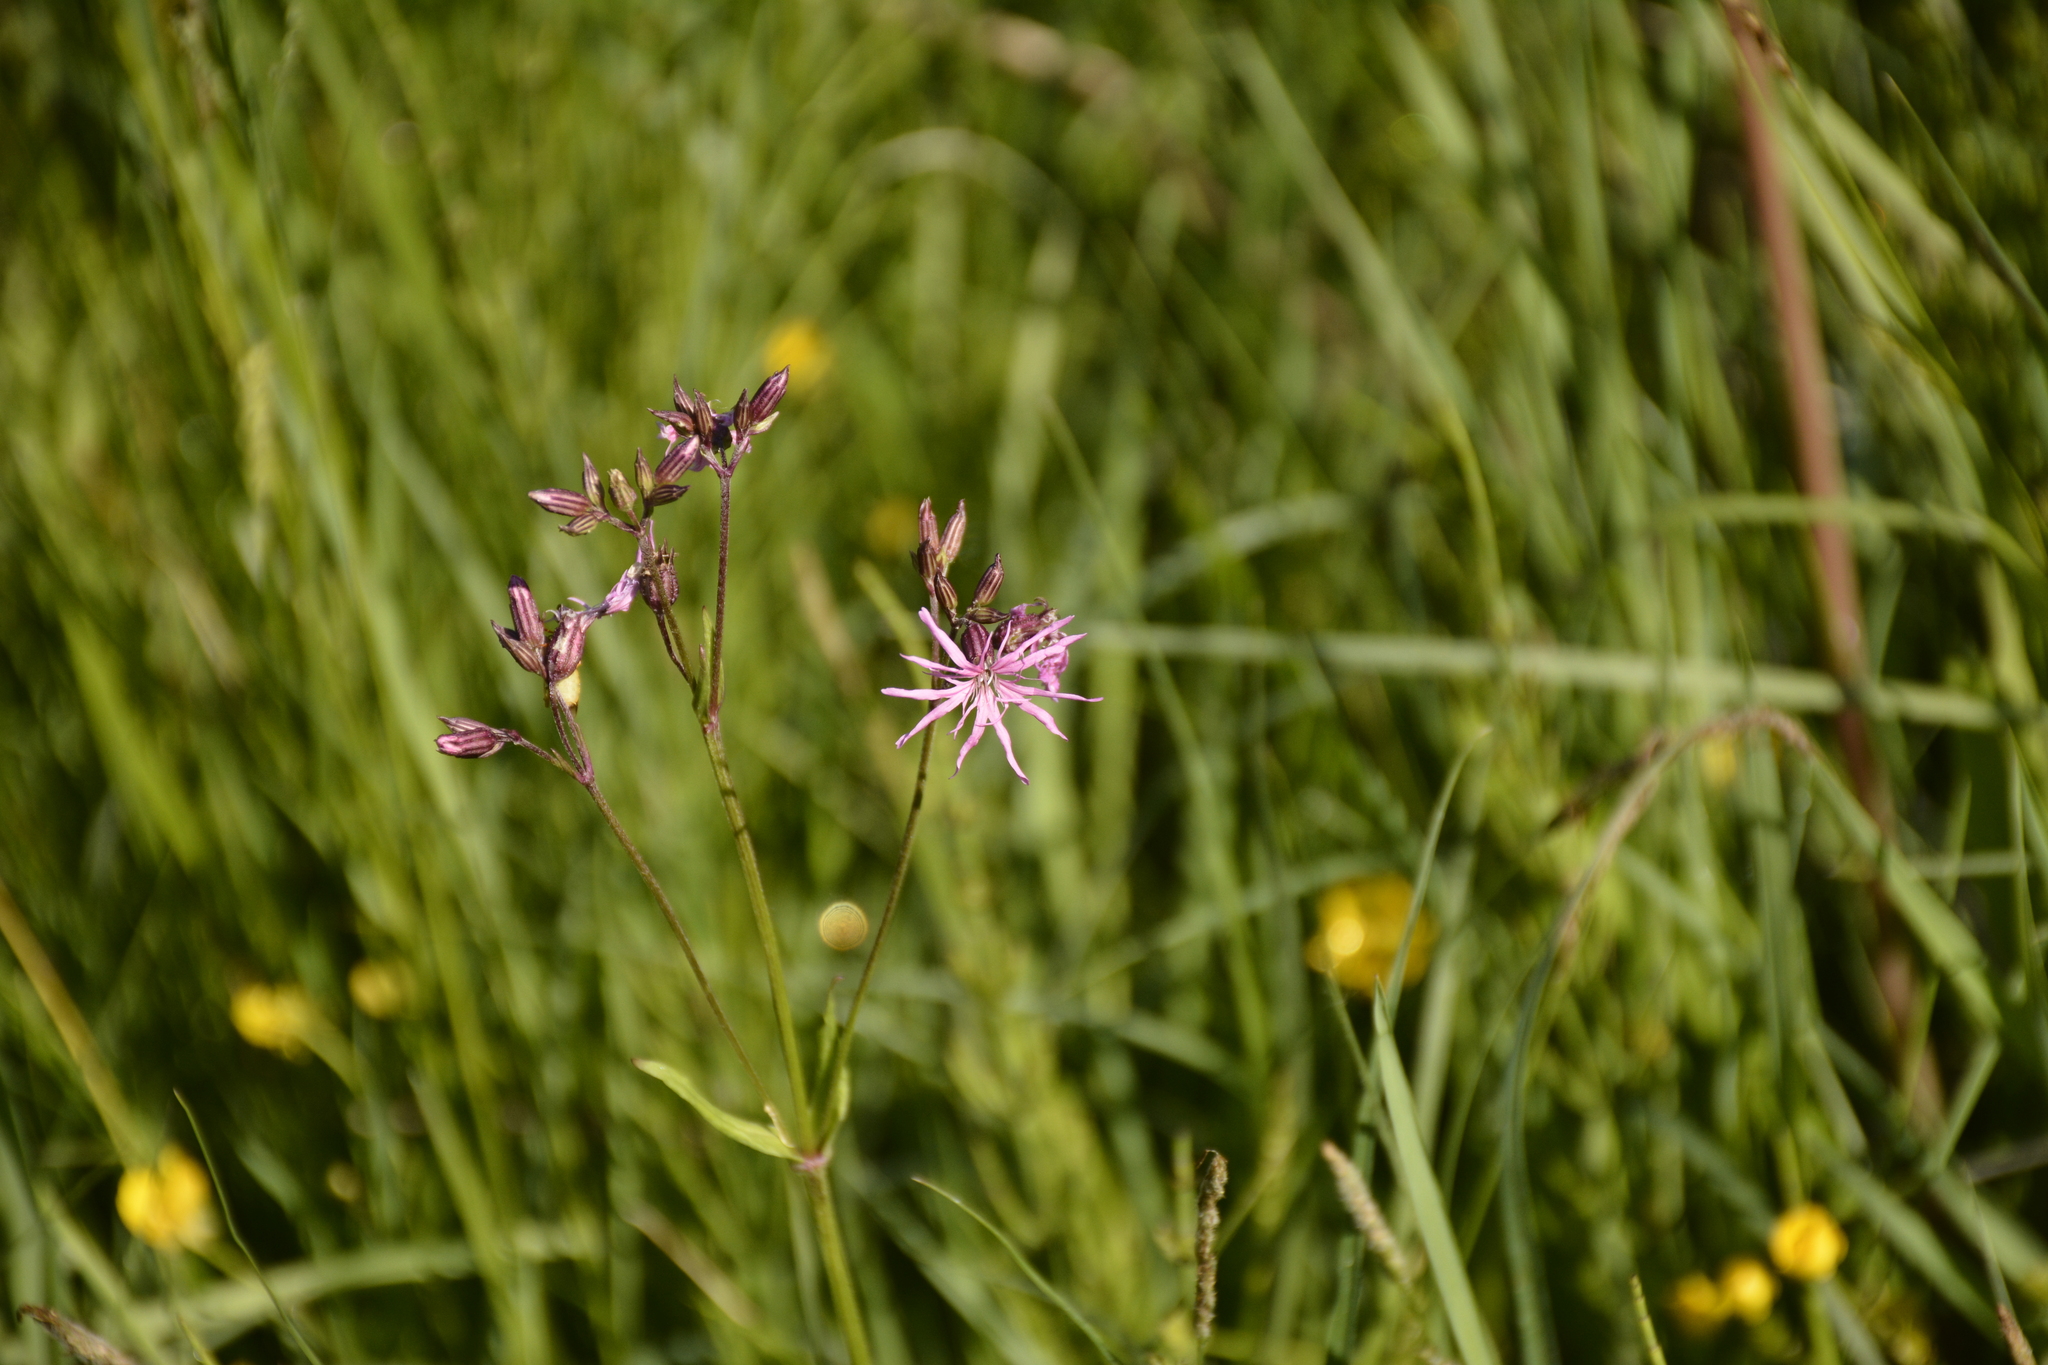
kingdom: Plantae
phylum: Tracheophyta
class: Magnoliopsida
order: Caryophyllales
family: Caryophyllaceae
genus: Silene
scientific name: Silene flos-cuculi
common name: Ragged-robin
